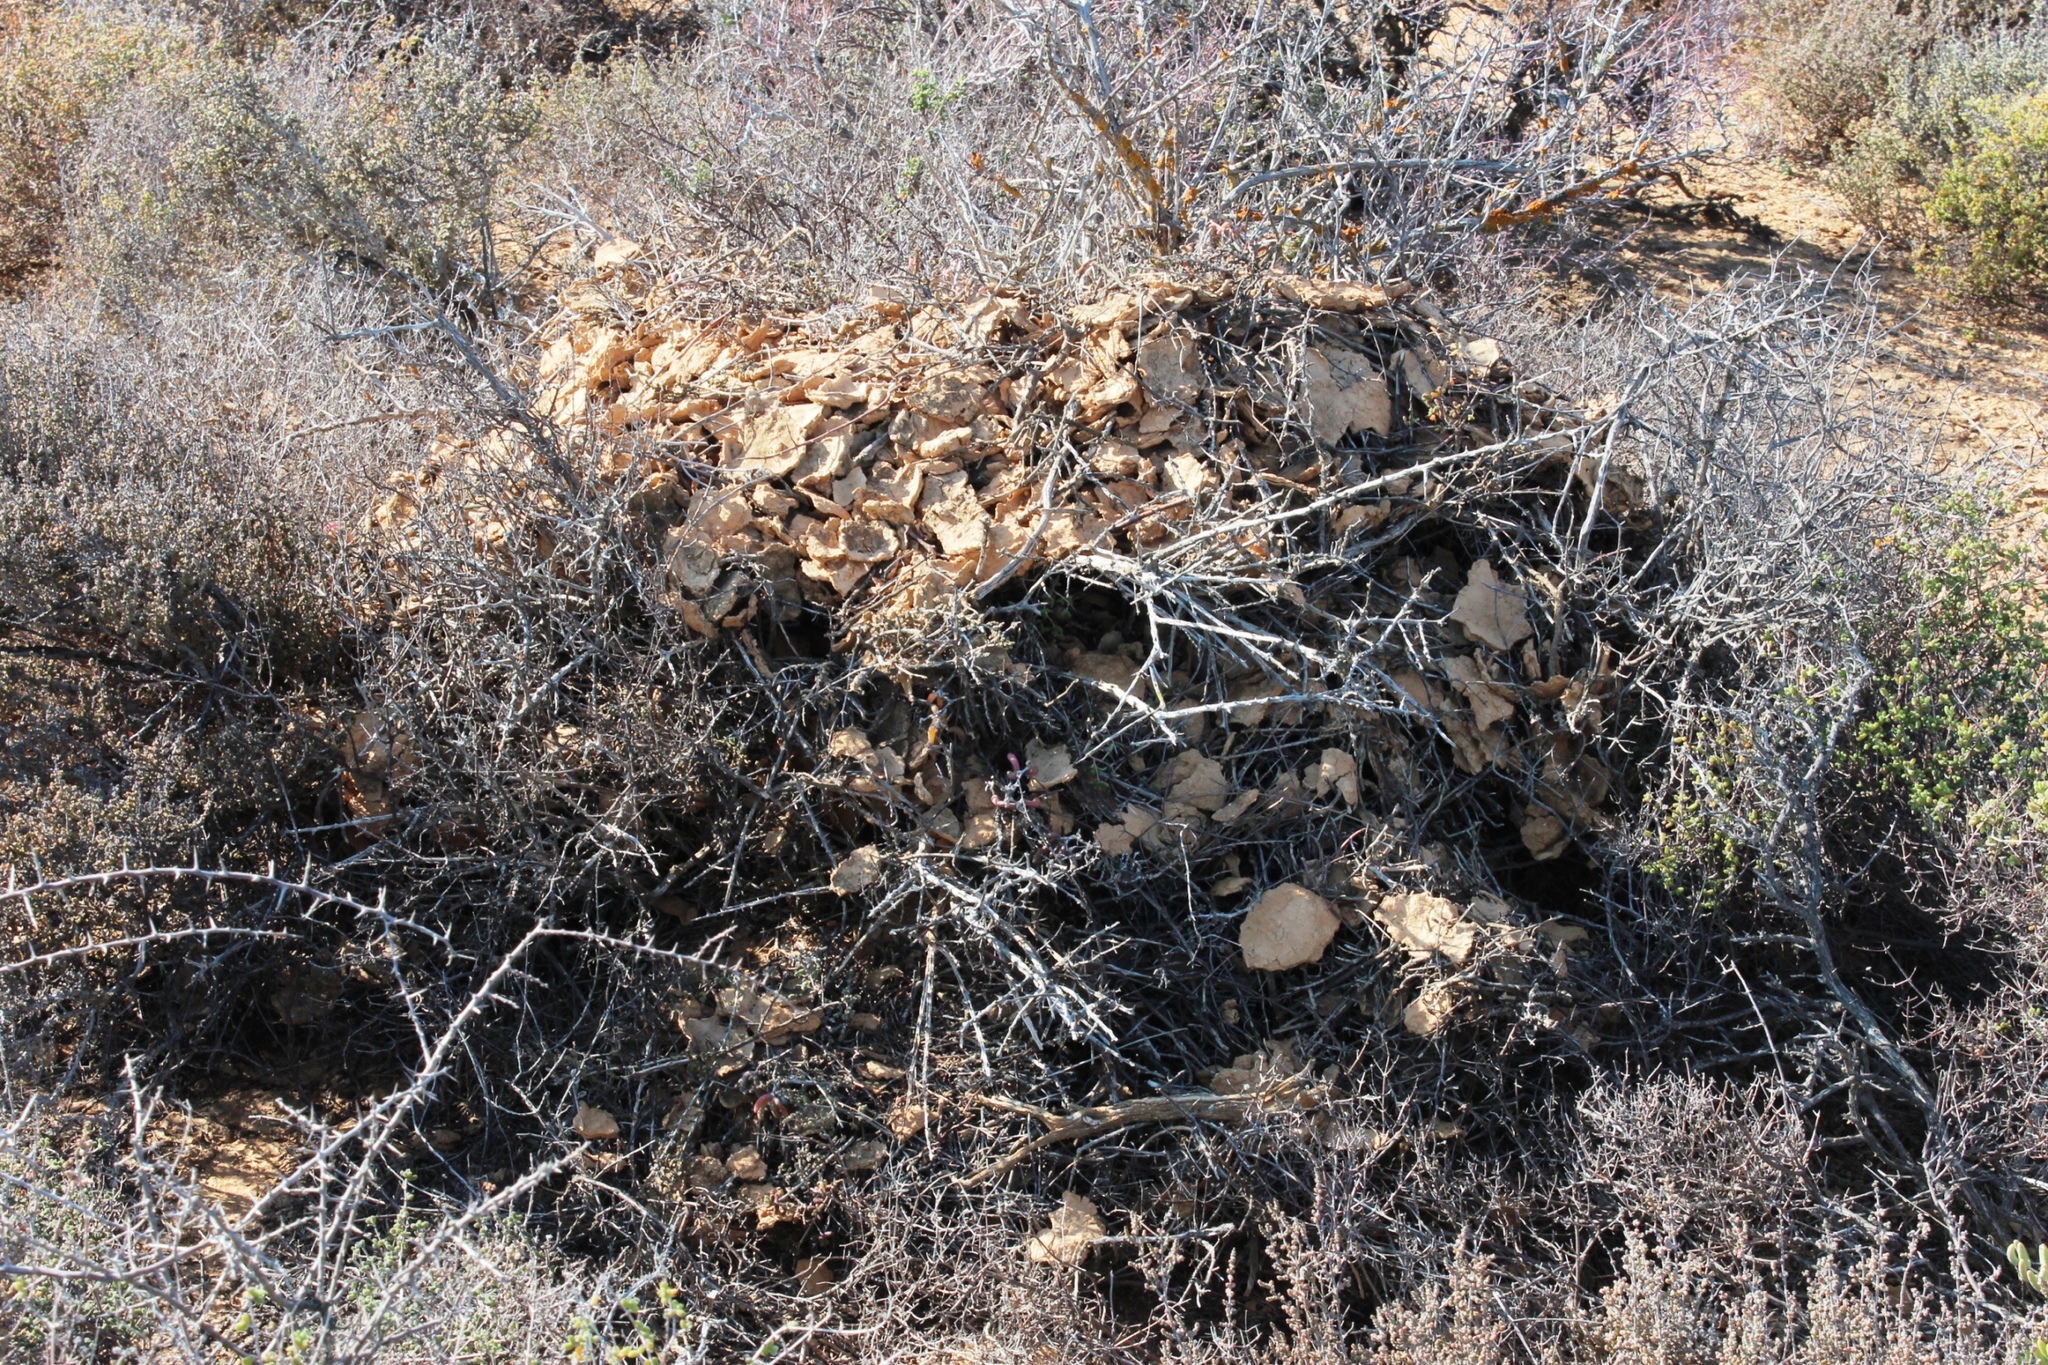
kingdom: Animalia
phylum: Chordata
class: Mammalia
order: Rodentia
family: Muridae
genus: Myotomys
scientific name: Myotomys unisulcatus
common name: Bush karroo rat
